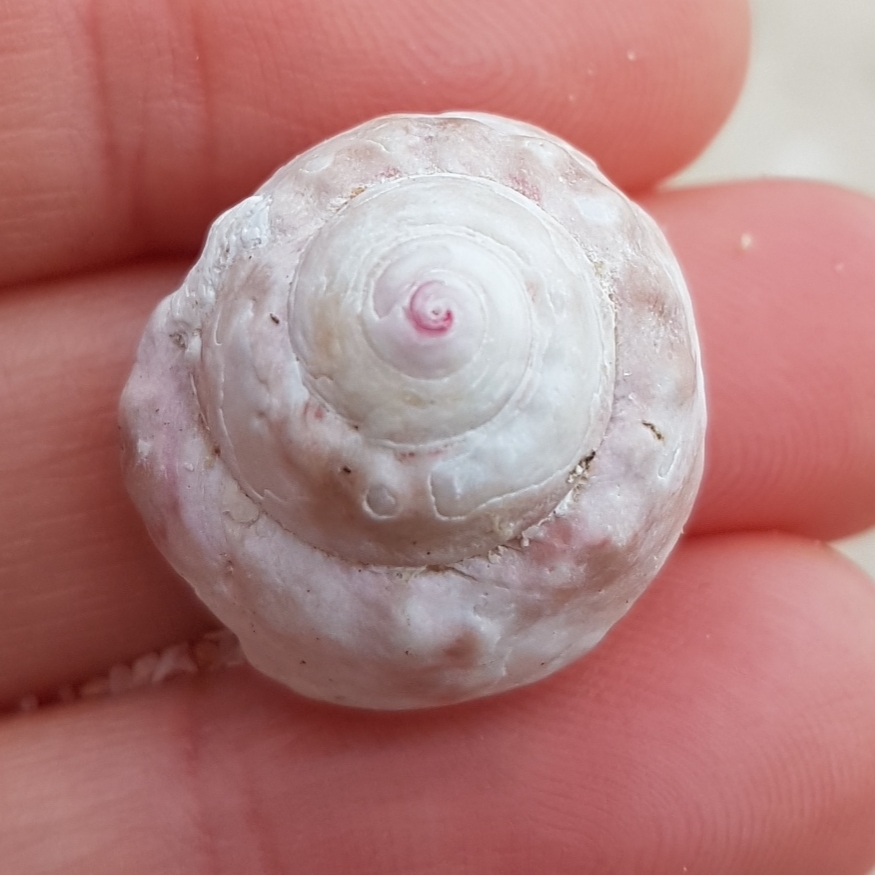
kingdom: Animalia
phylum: Mollusca
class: Gastropoda
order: Trochida
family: Trochidae
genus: Gibbula
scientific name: Gibbula magus
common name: Turban top shell
